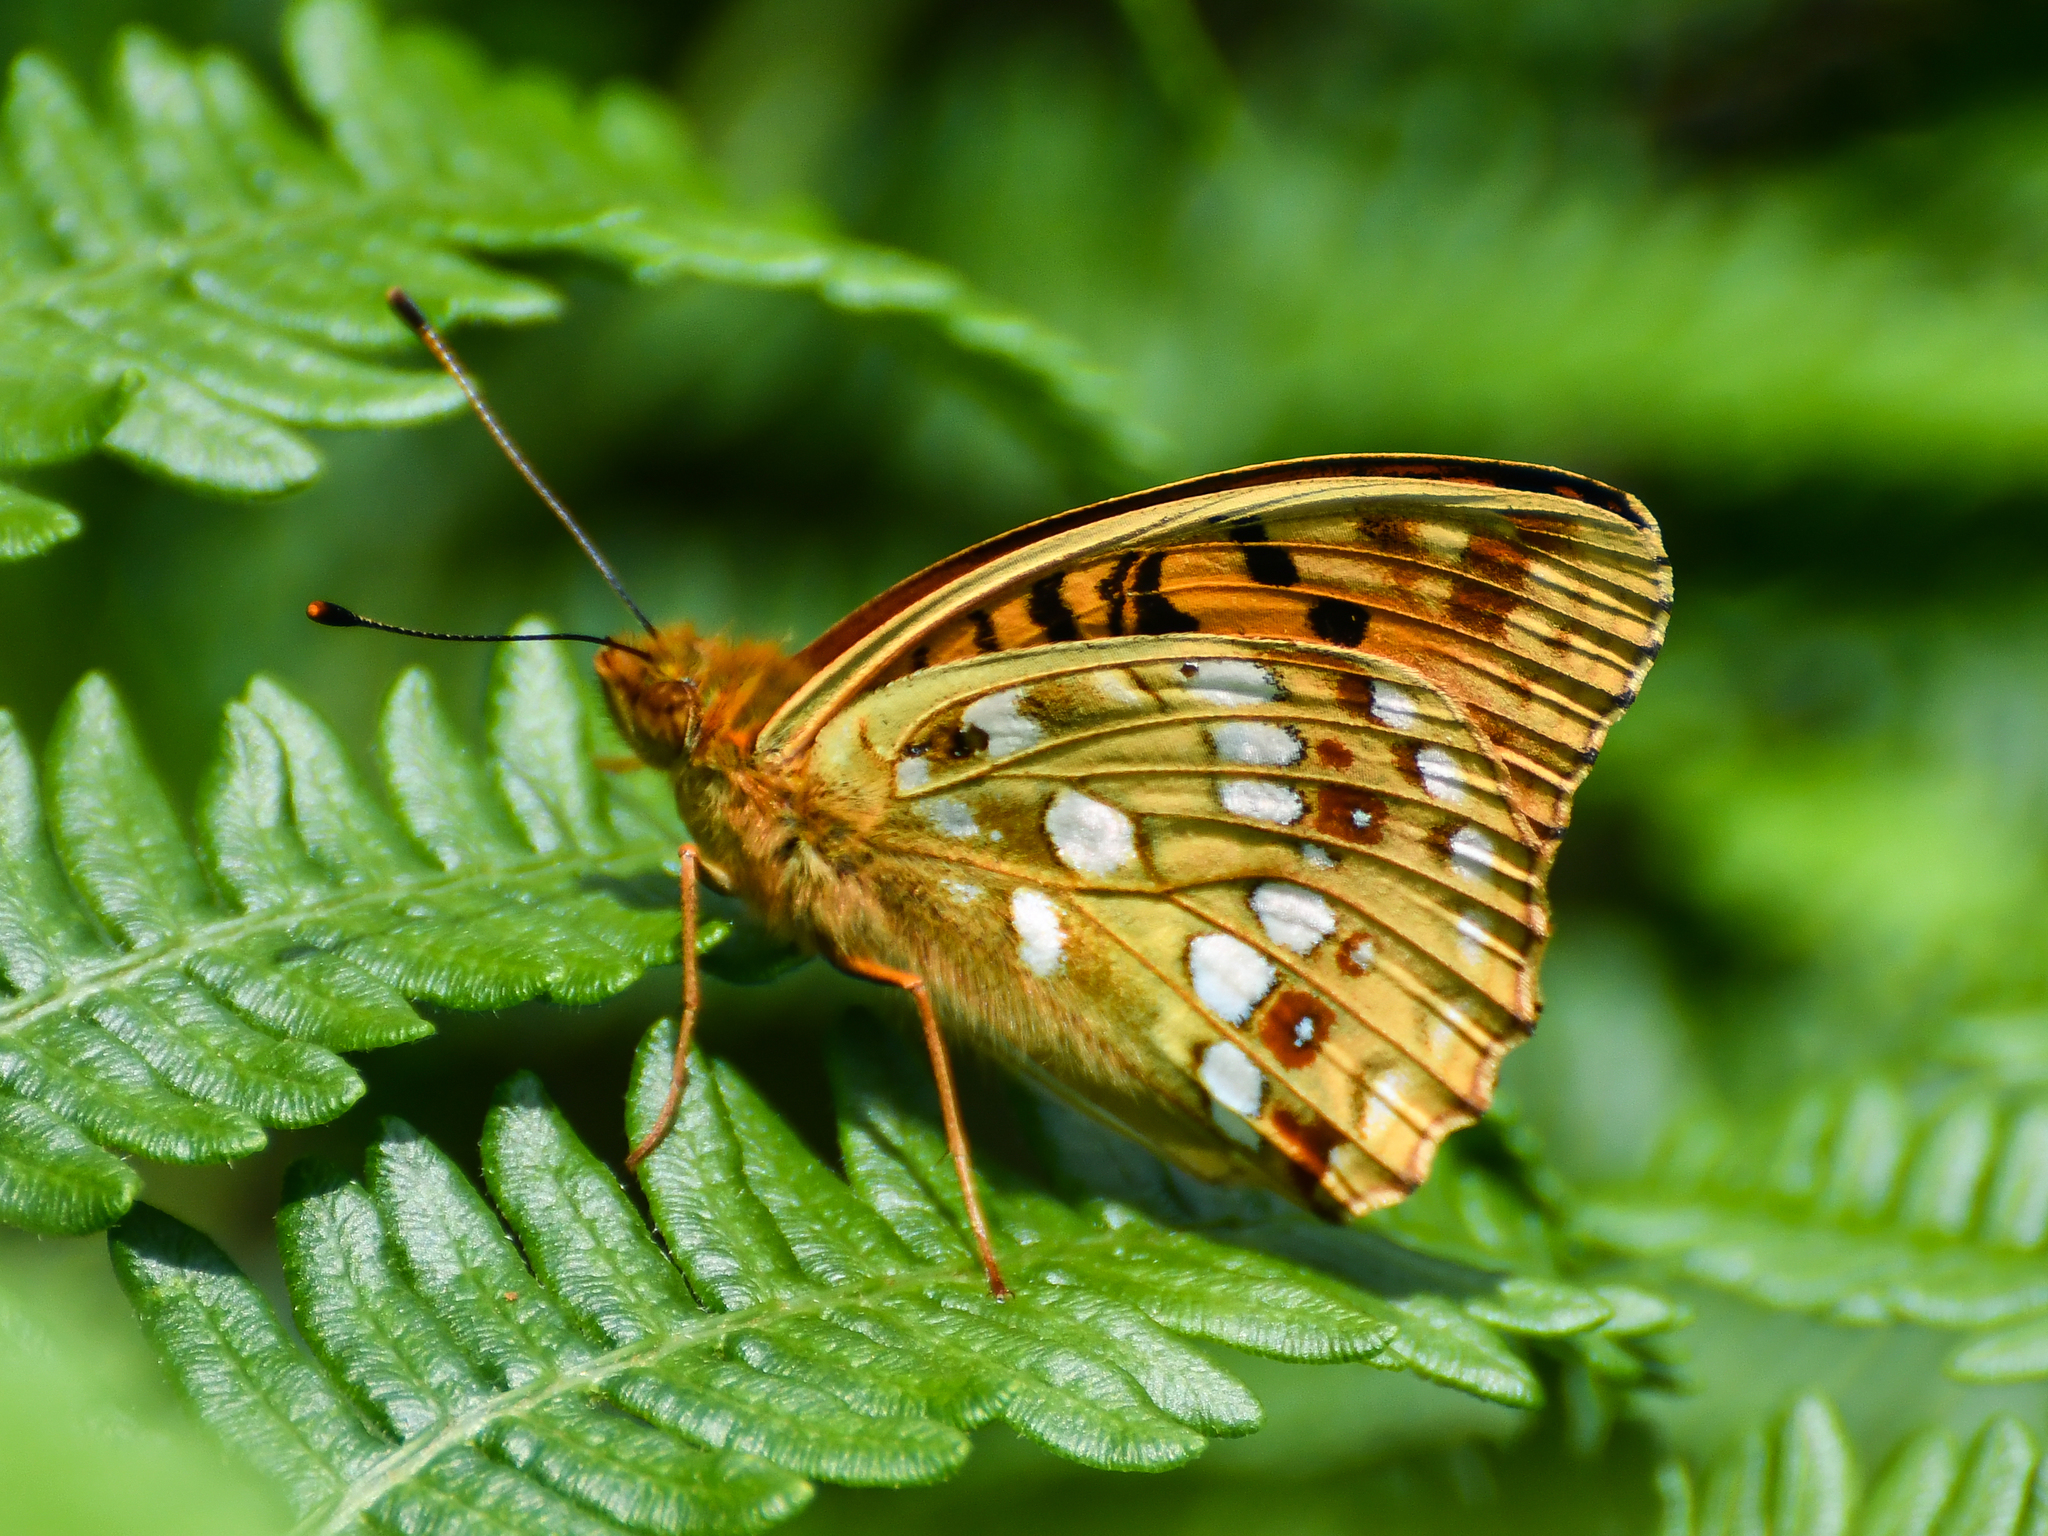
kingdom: Animalia
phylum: Arthropoda
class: Insecta
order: Lepidoptera
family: Nymphalidae
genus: Fabriciana
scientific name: Fabriciana adippe
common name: High brown fritillary
